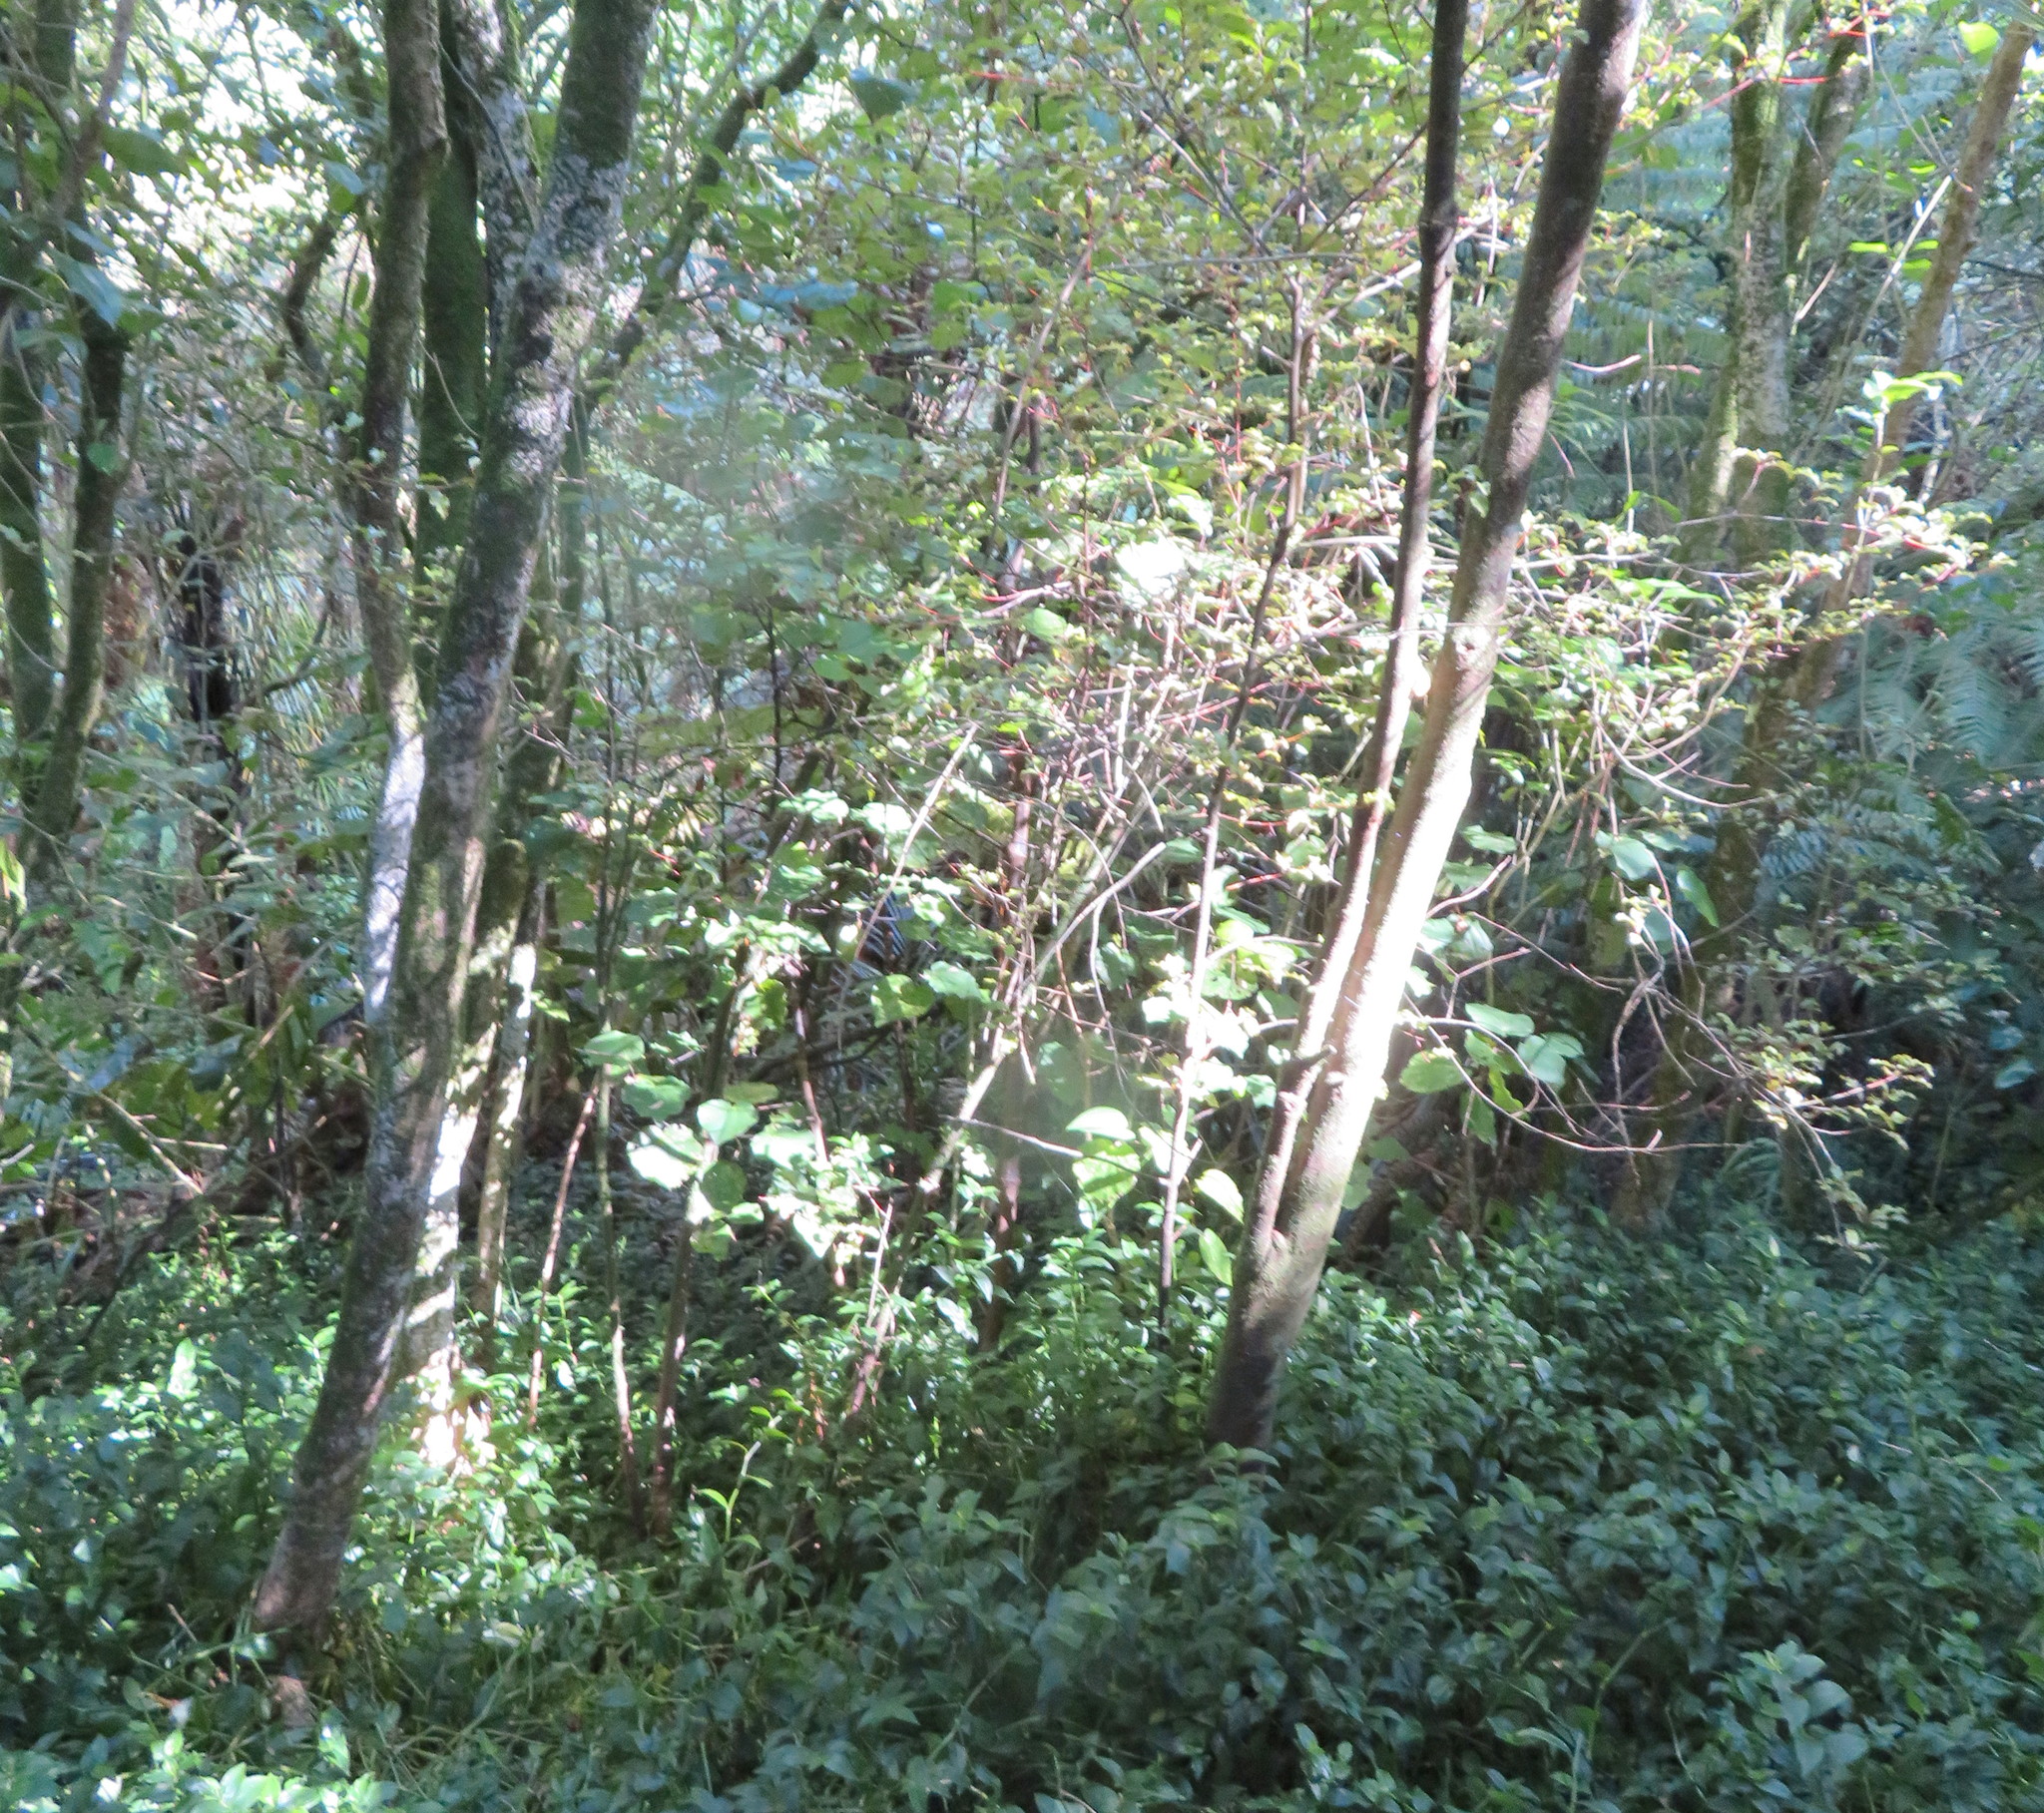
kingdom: Plantae
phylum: Tracheophyta
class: Magnoliopsida
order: Ericales
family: Primulaceae
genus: Myrsine
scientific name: Myrsine australis
